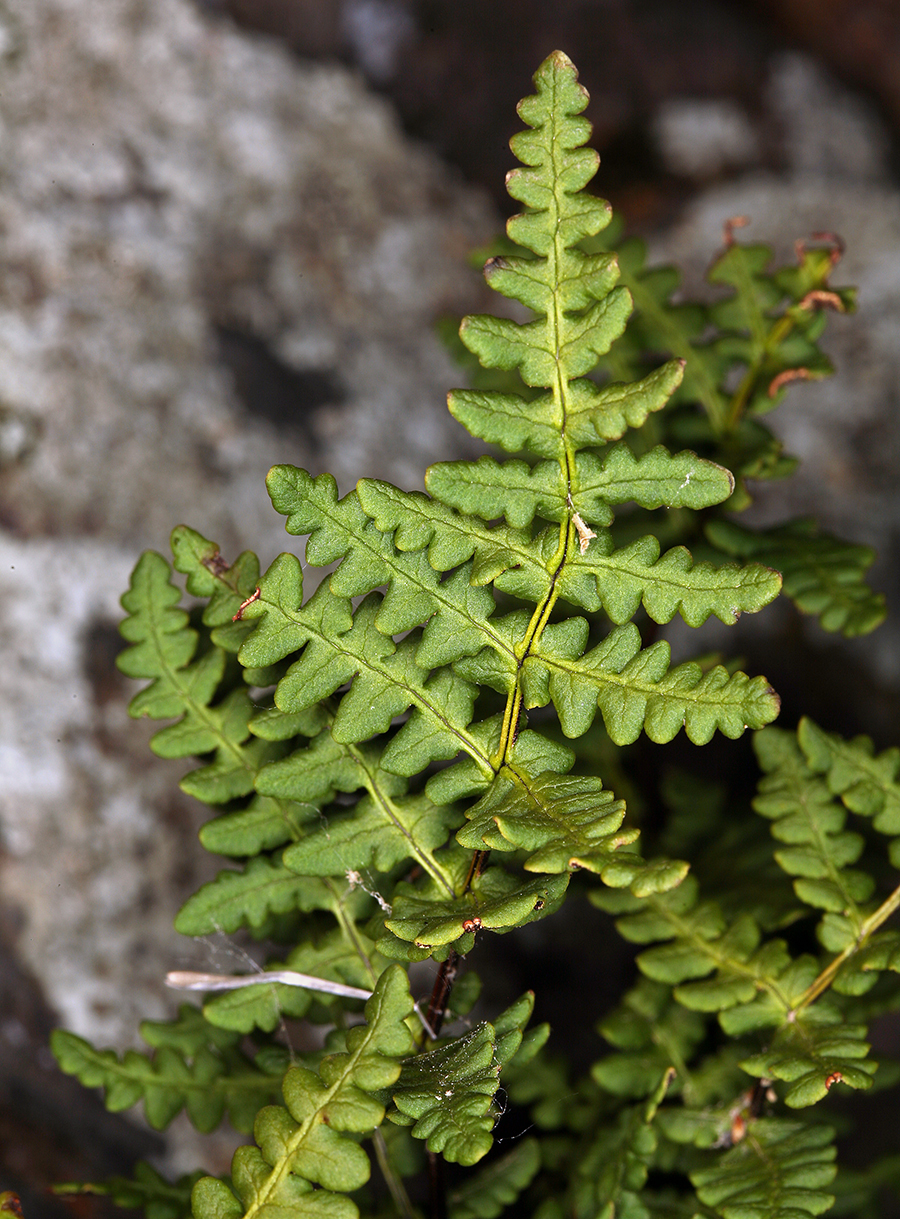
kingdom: Plantae
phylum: Tracheophyta
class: Polypodiopsida
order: Polypodiales
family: Pteridaceae
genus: Pentagramma
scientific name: Pentagramma triangularis
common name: Gold fern
